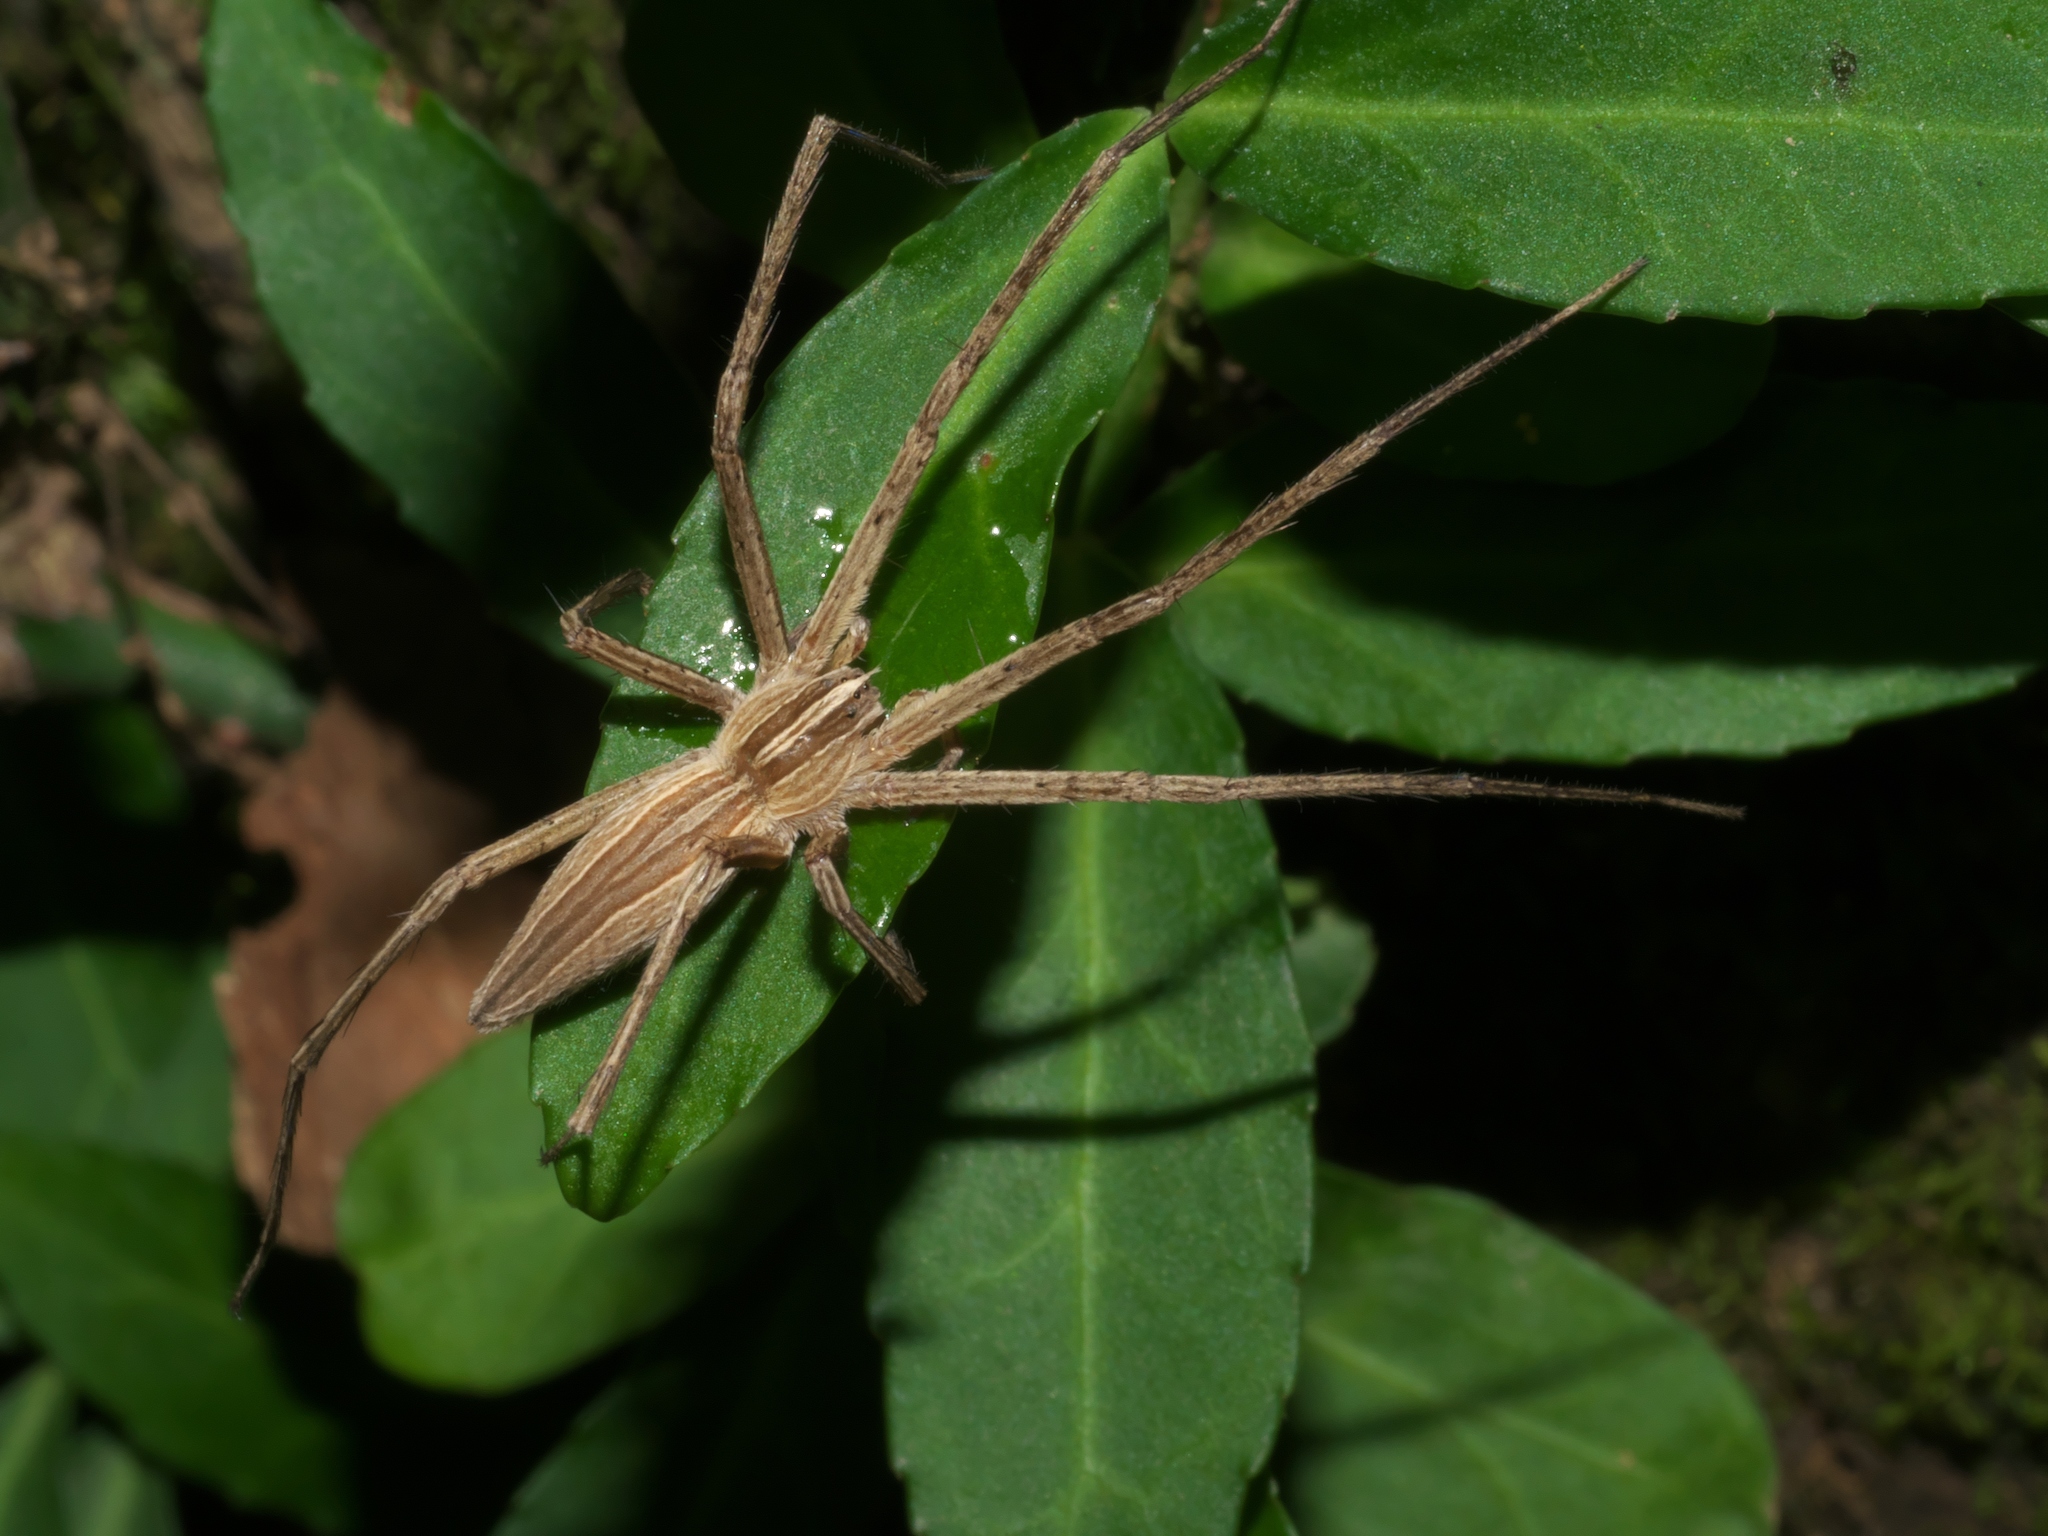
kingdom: Animalia
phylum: Arthropoda
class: Arachnida
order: Araneae
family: Pisauridae
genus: Pisaurina
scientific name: Pisaurina dubia
